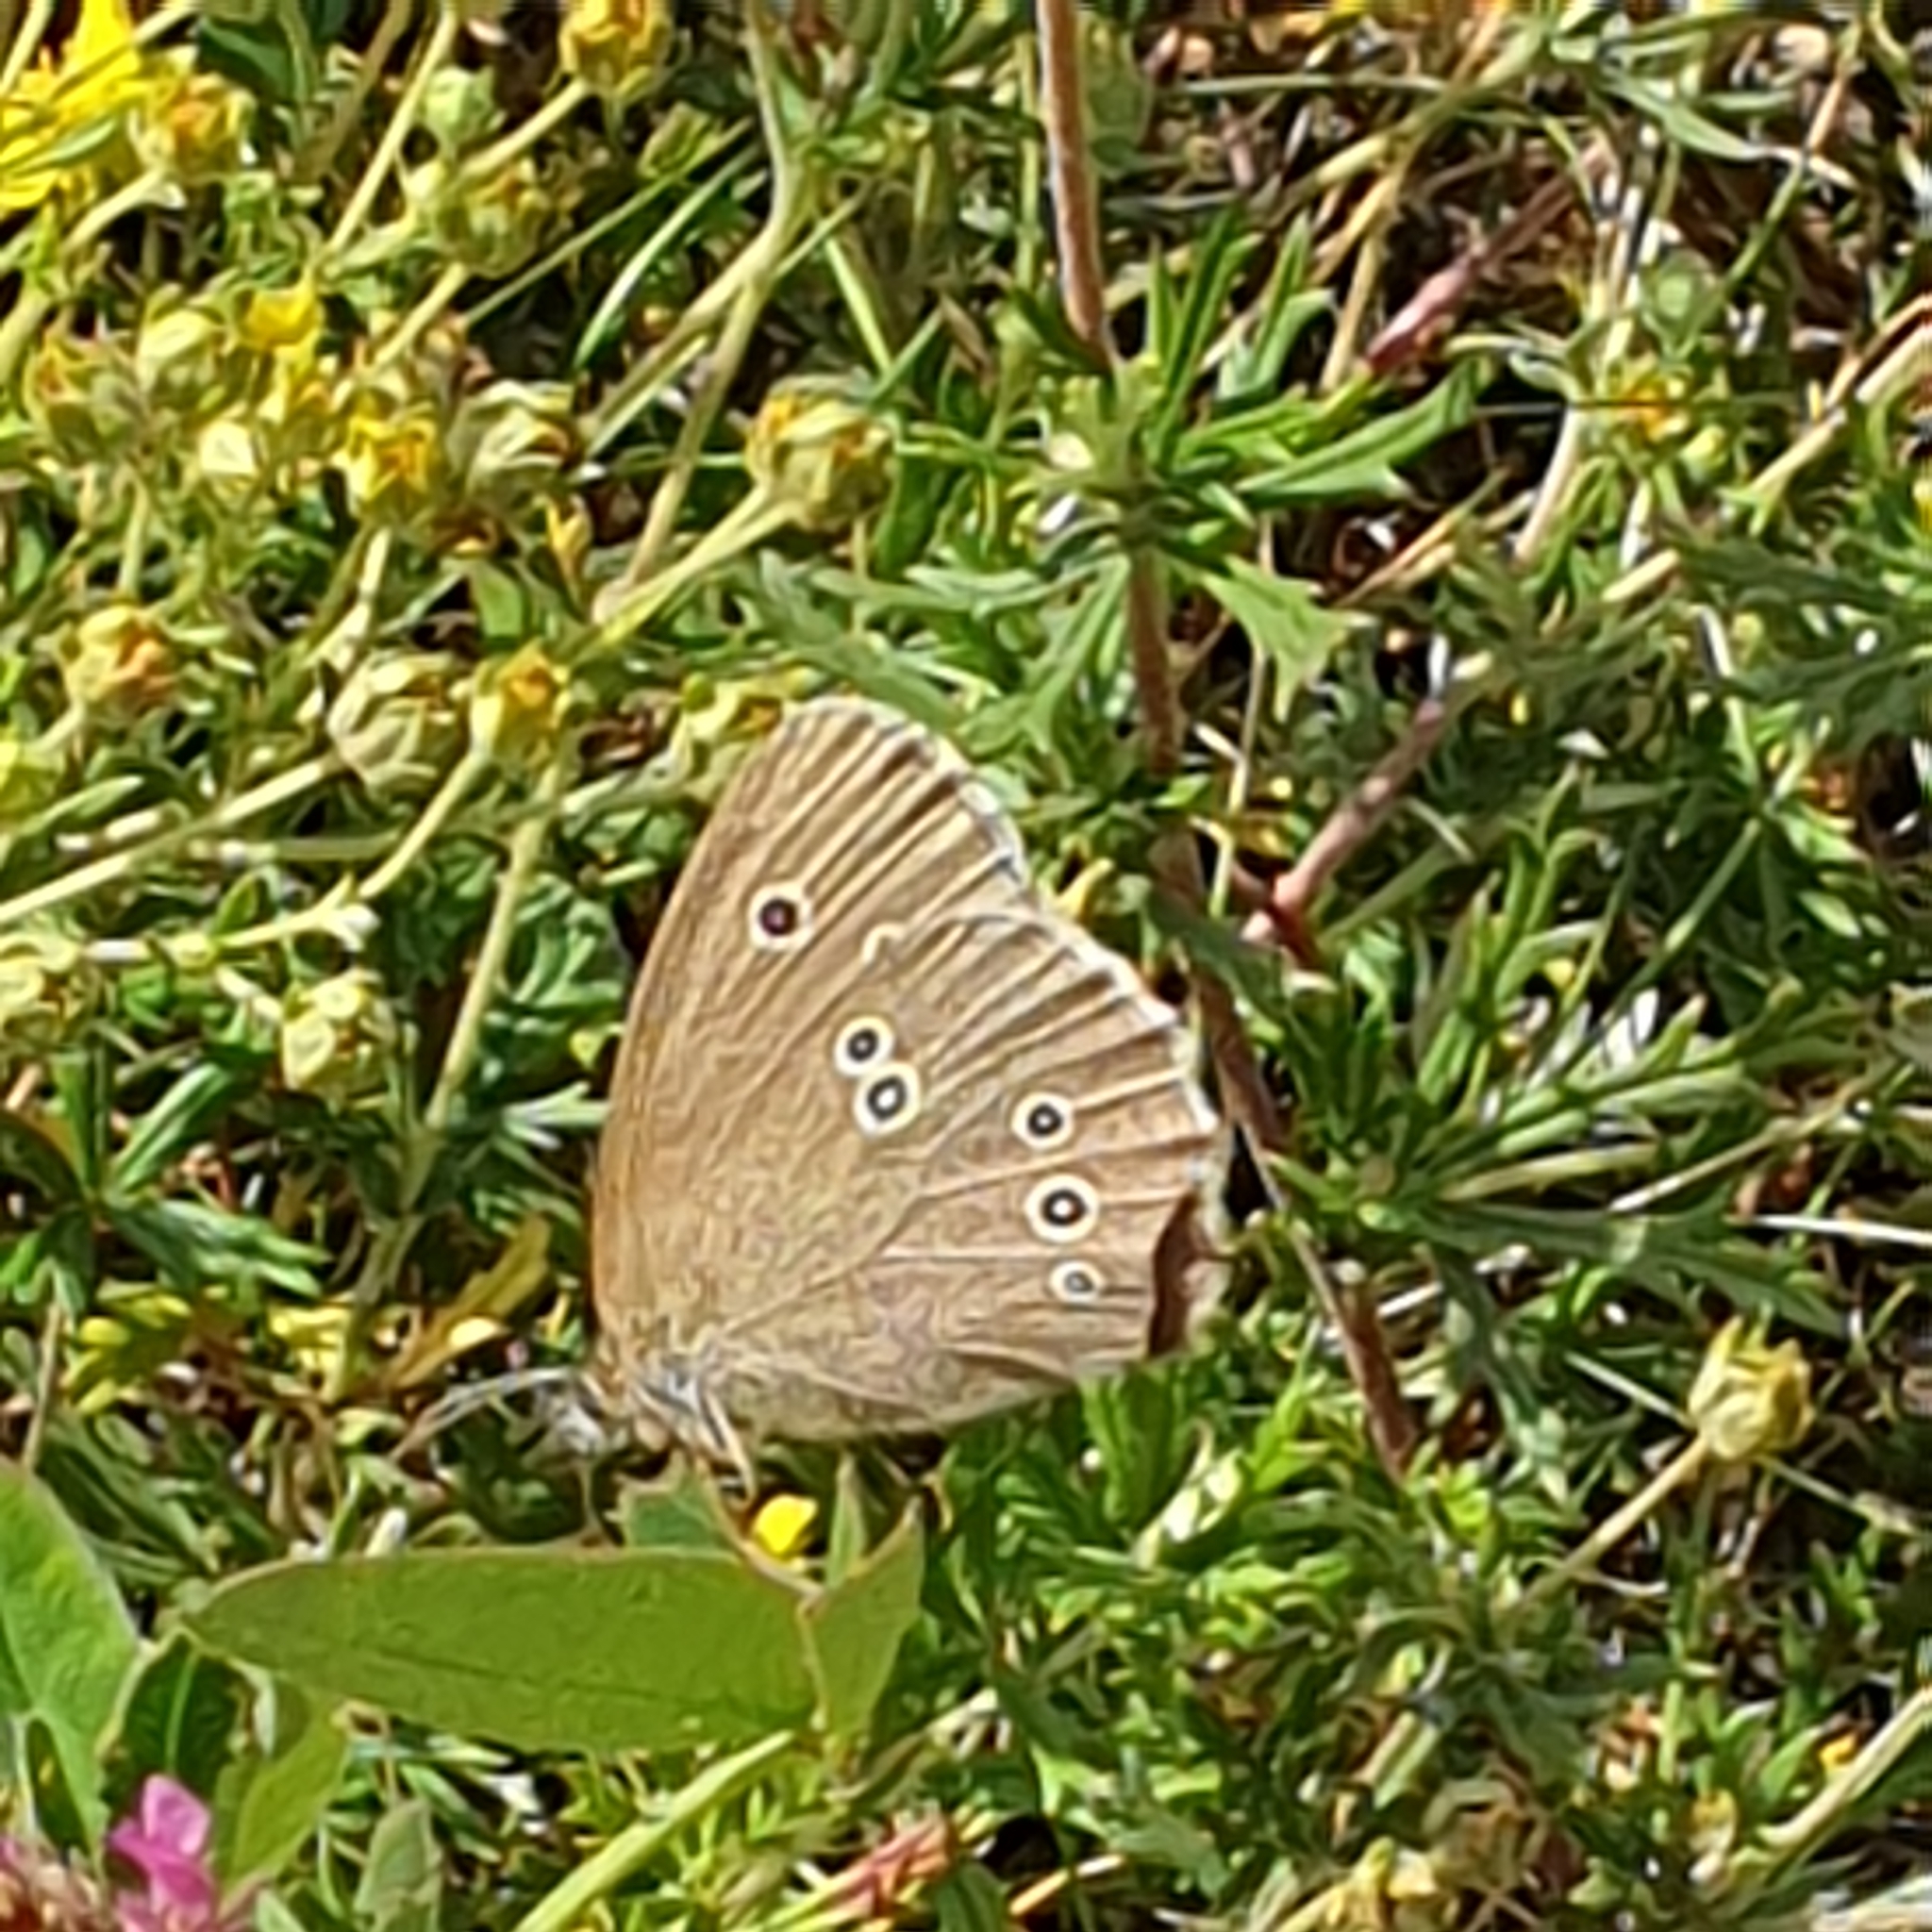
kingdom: Animalia
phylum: Arthropoda
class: Insecta
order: Lepidoptera
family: Nymphalidae
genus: Aphantopus
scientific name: Aphantopus hyperantus
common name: Ringlet
